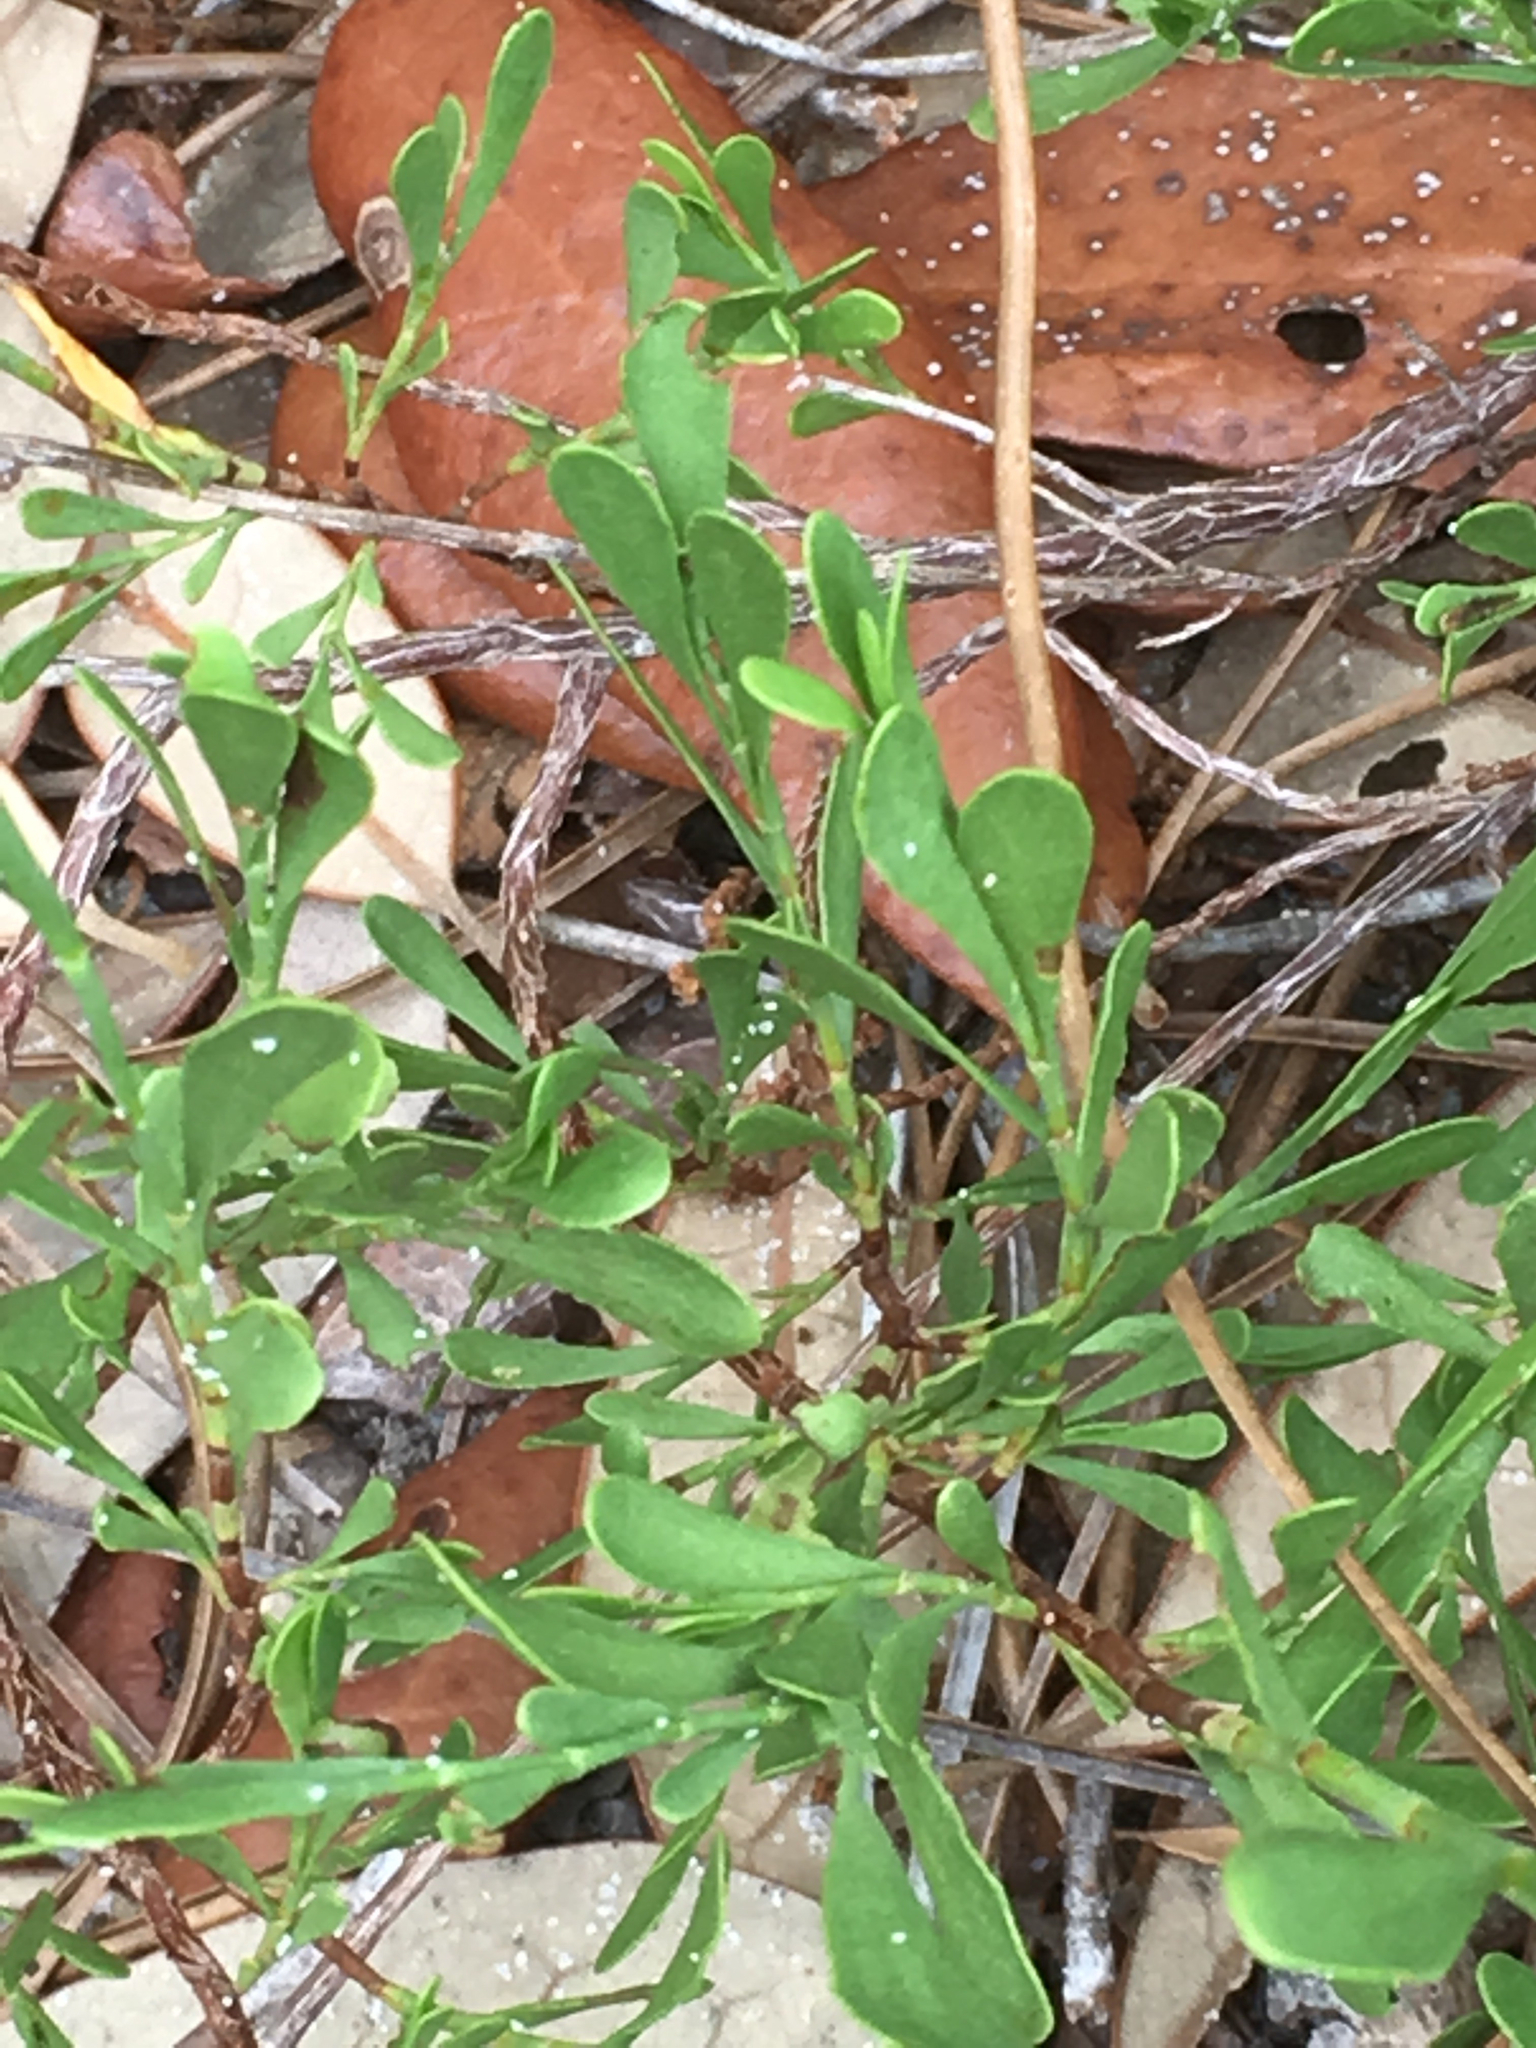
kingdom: Plantae
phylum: Tracheophyta
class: Magnoliopsida
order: Caryophyllales
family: Polygonaceae
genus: Polygonella
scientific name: Polygonella polygama
